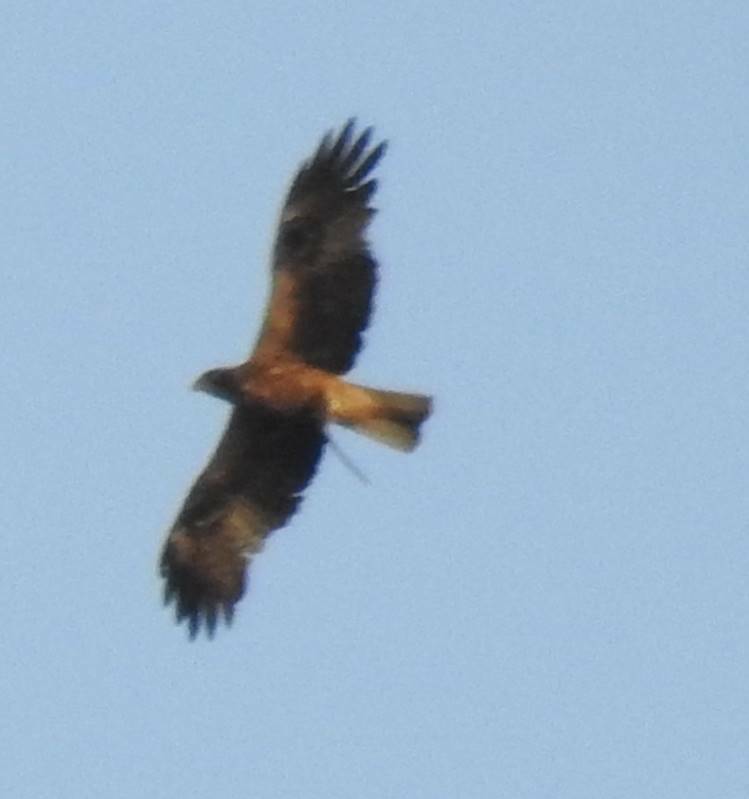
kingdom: Animalia
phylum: Chordata
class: Aves
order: Accipitriformes
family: Accipitridae
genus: Hieraaetus
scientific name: Hieraaetus pennatus
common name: Booted eagle
